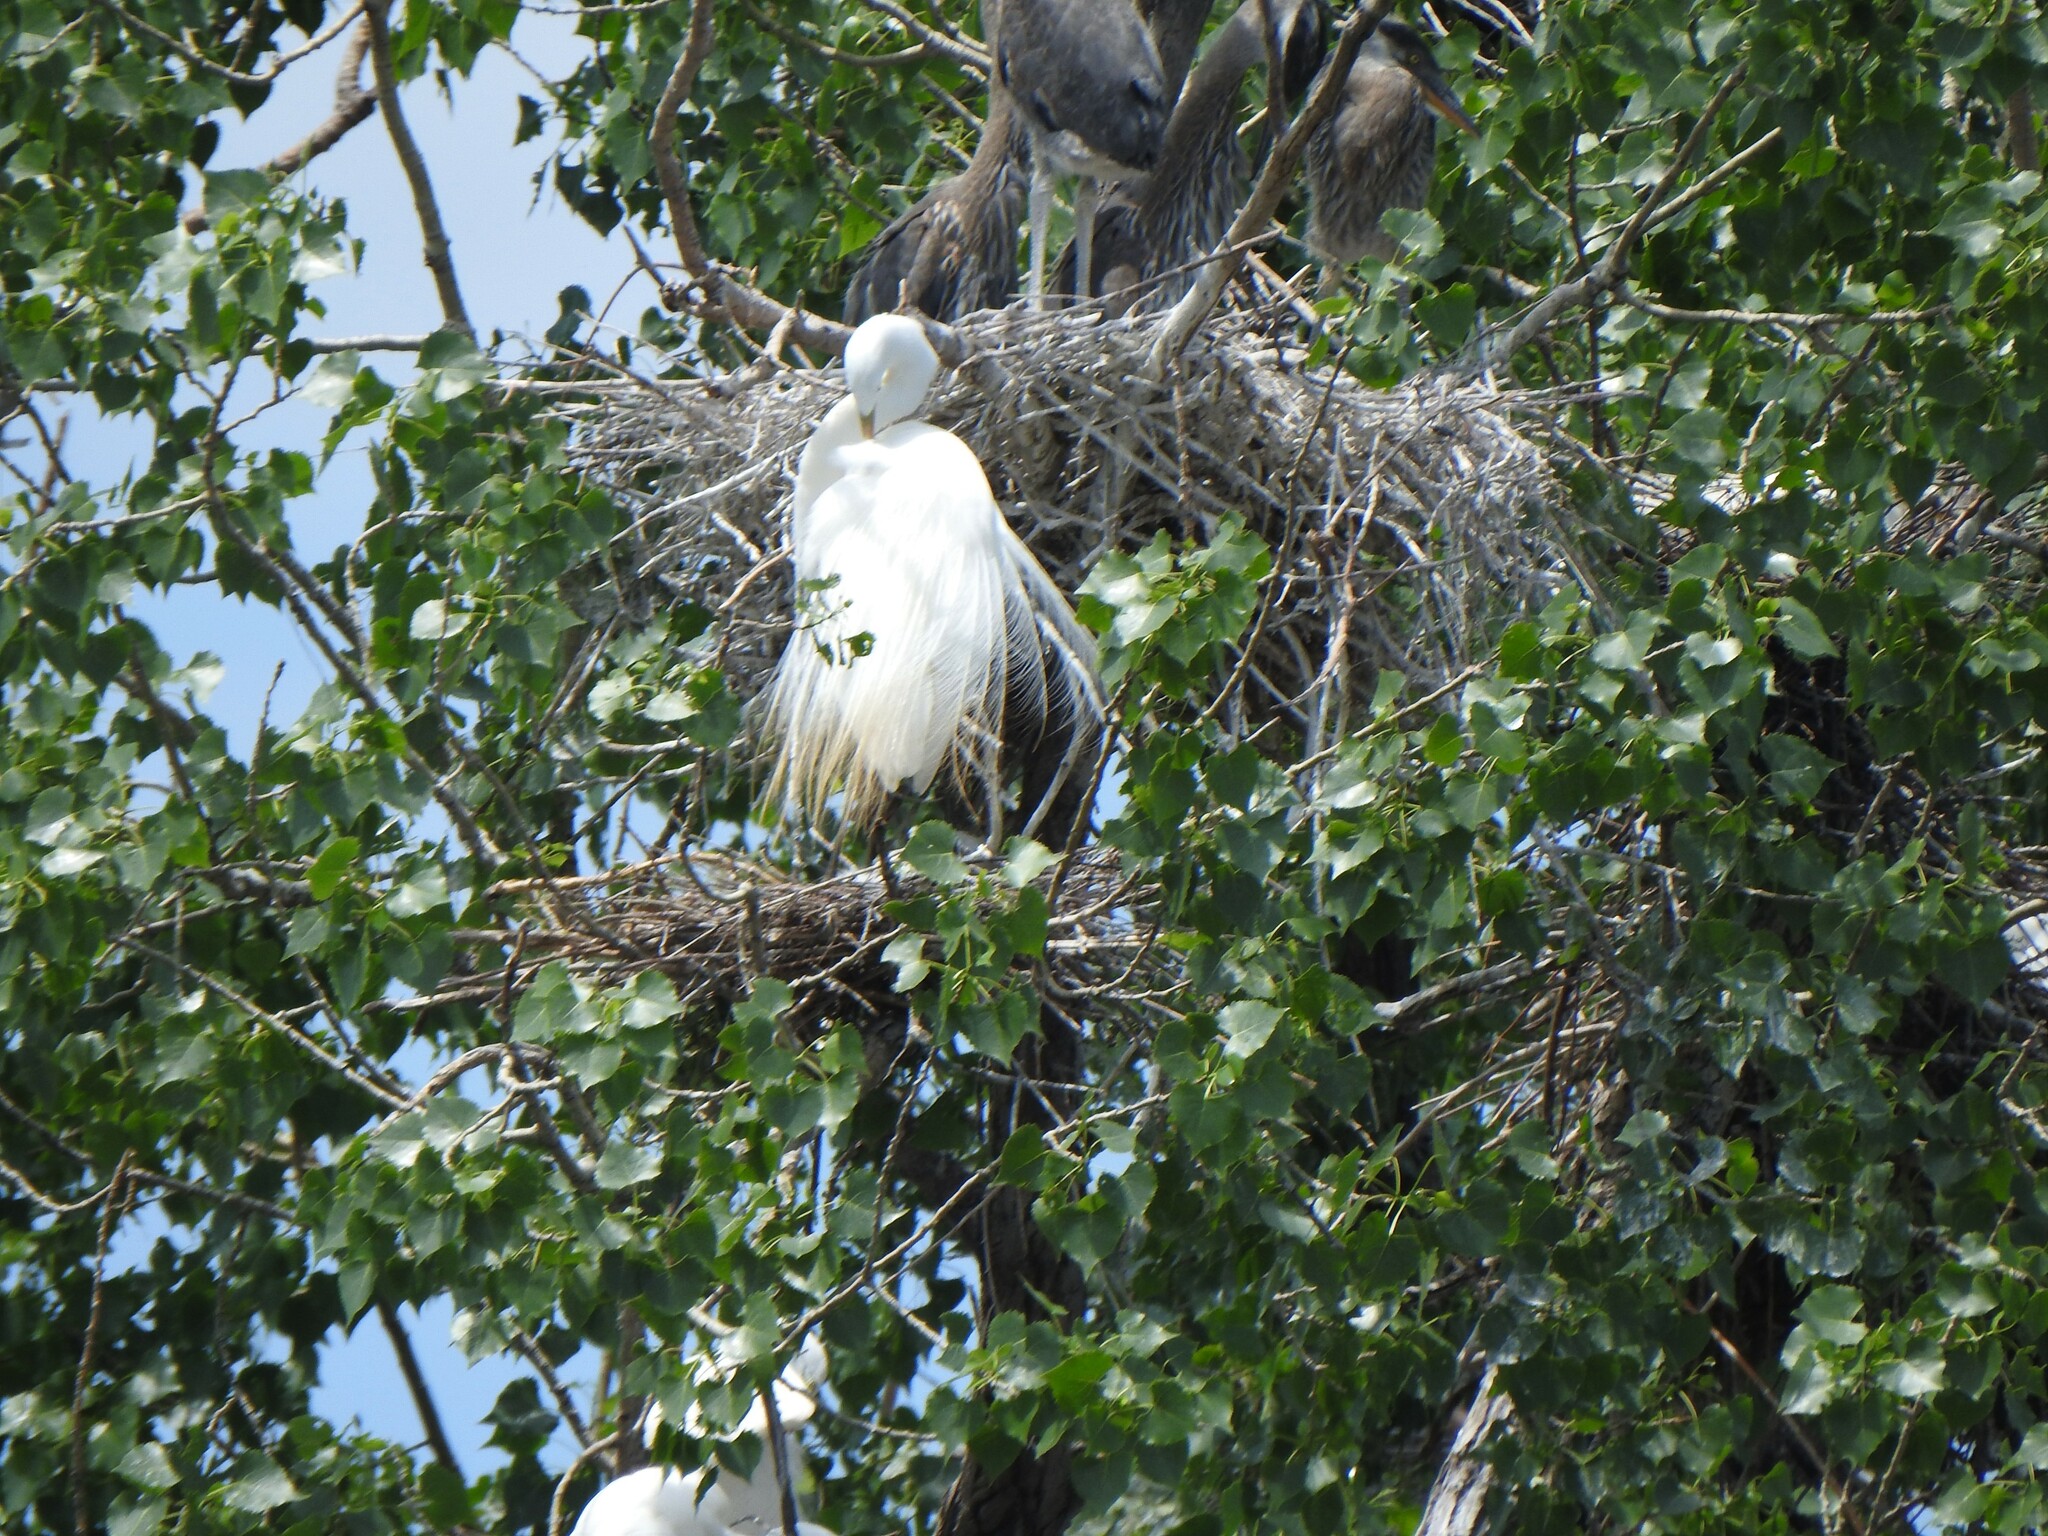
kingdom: Animalia
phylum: Chordata
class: Aves
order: Pelecaniformes
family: Ardeidae
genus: Ardea
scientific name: Ardea alba
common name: Great egret
